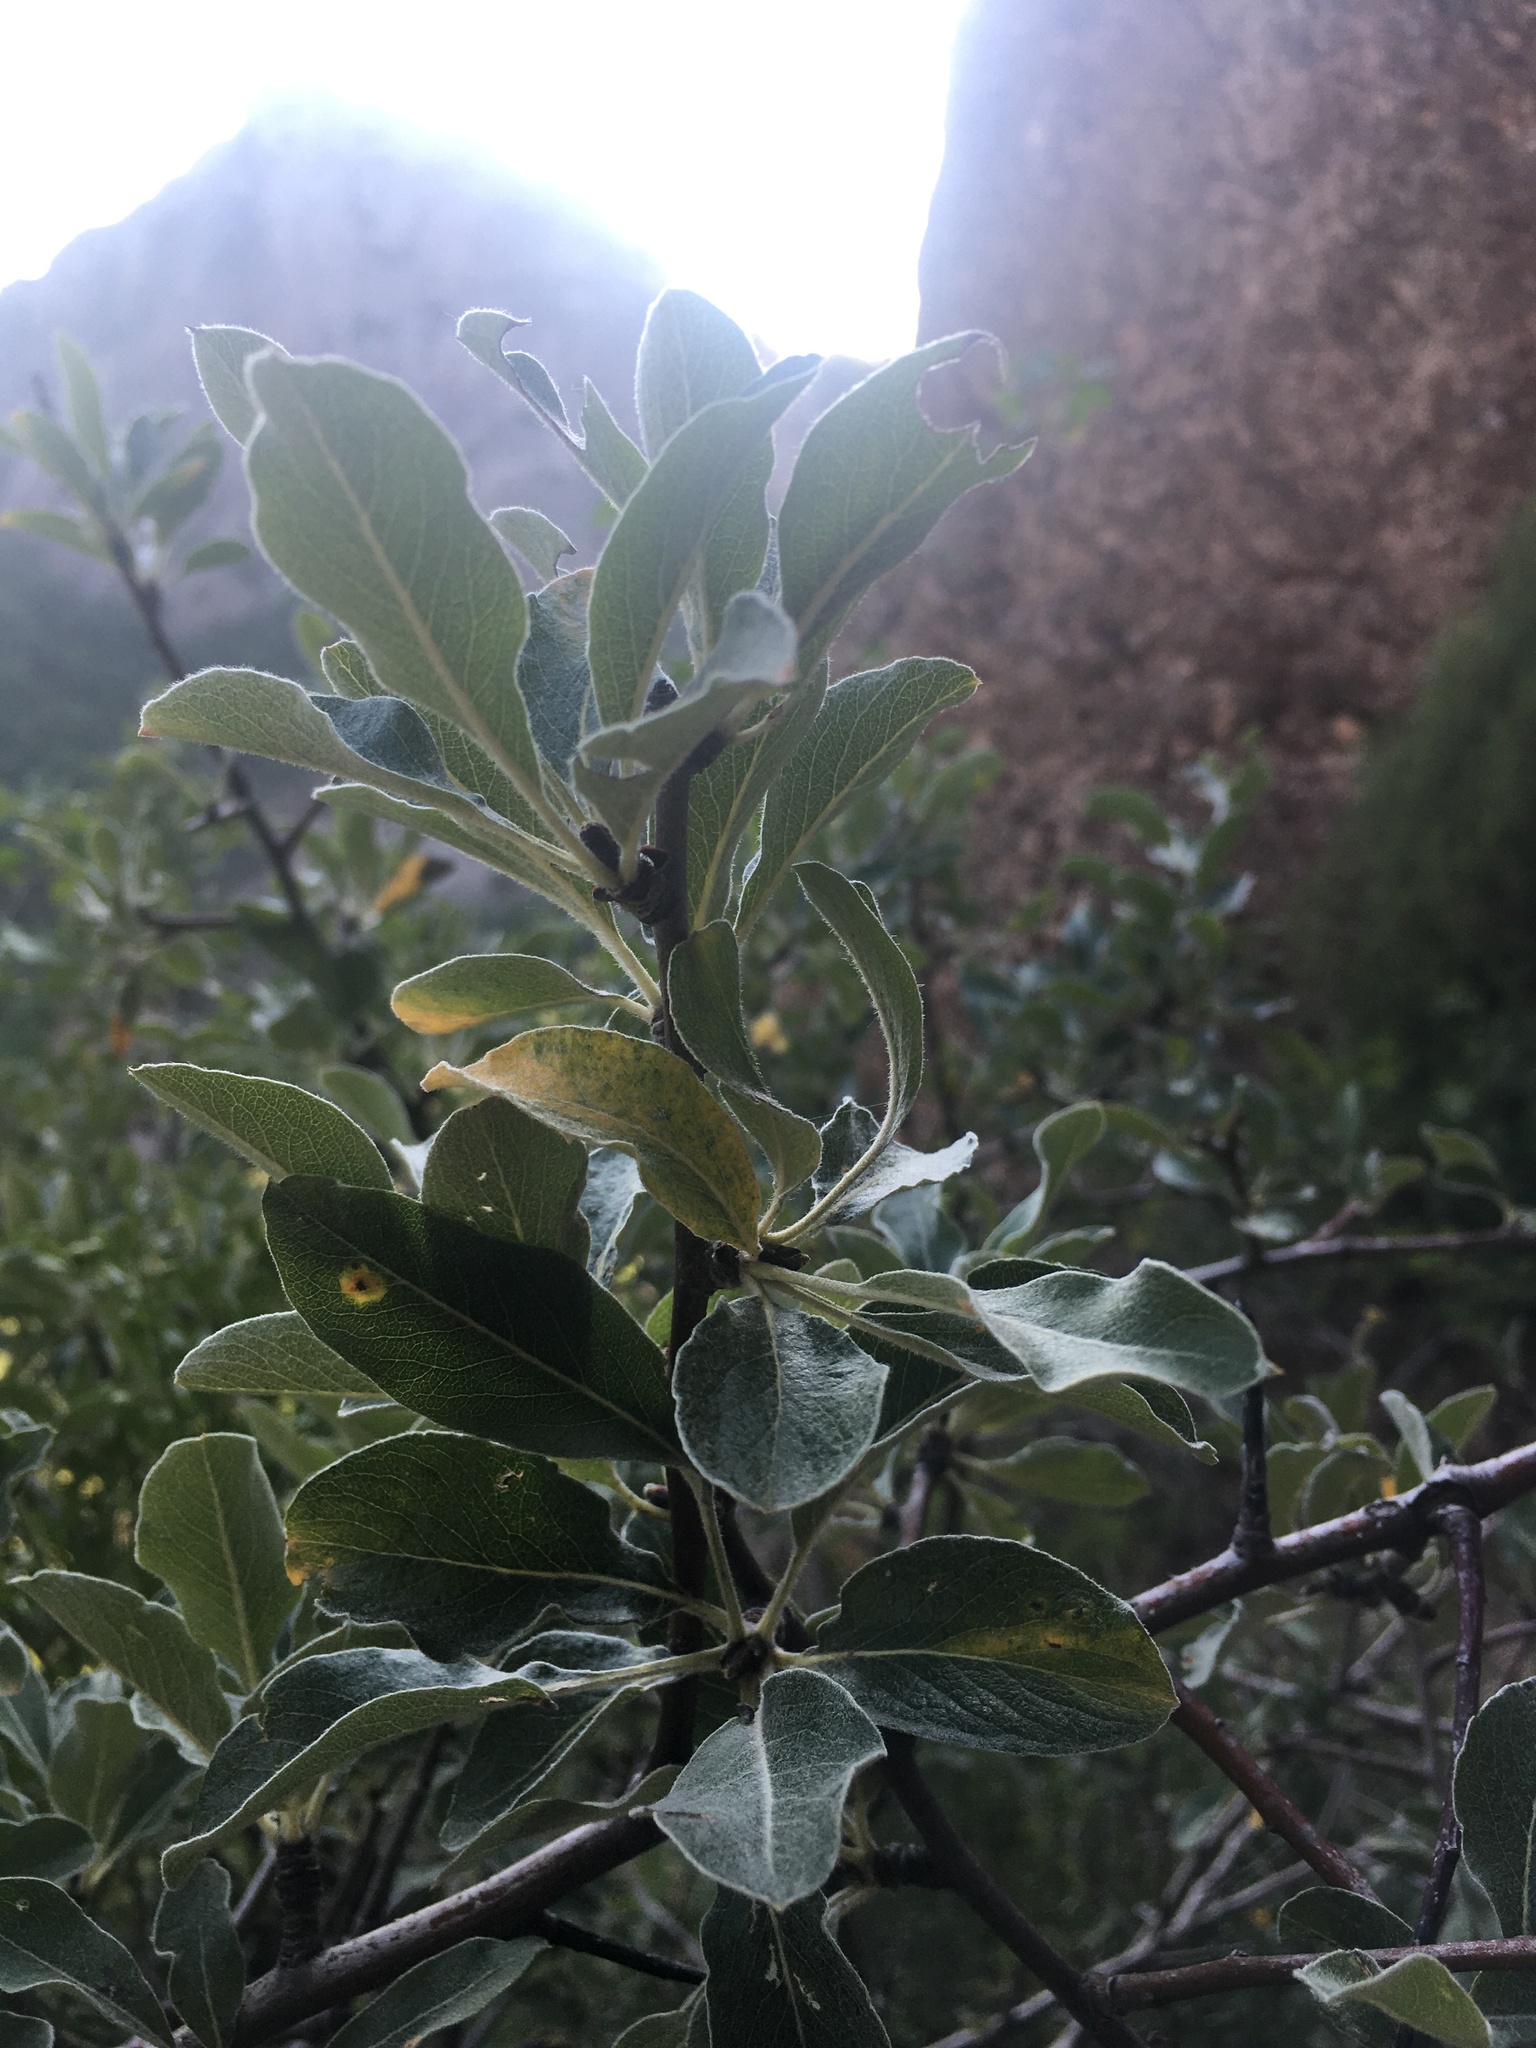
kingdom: Plantae
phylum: Tracheophyta
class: Magnoliopsida
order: Rosales
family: Rosaceae
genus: Pyrus
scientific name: Pyrus elaeagrifolia
